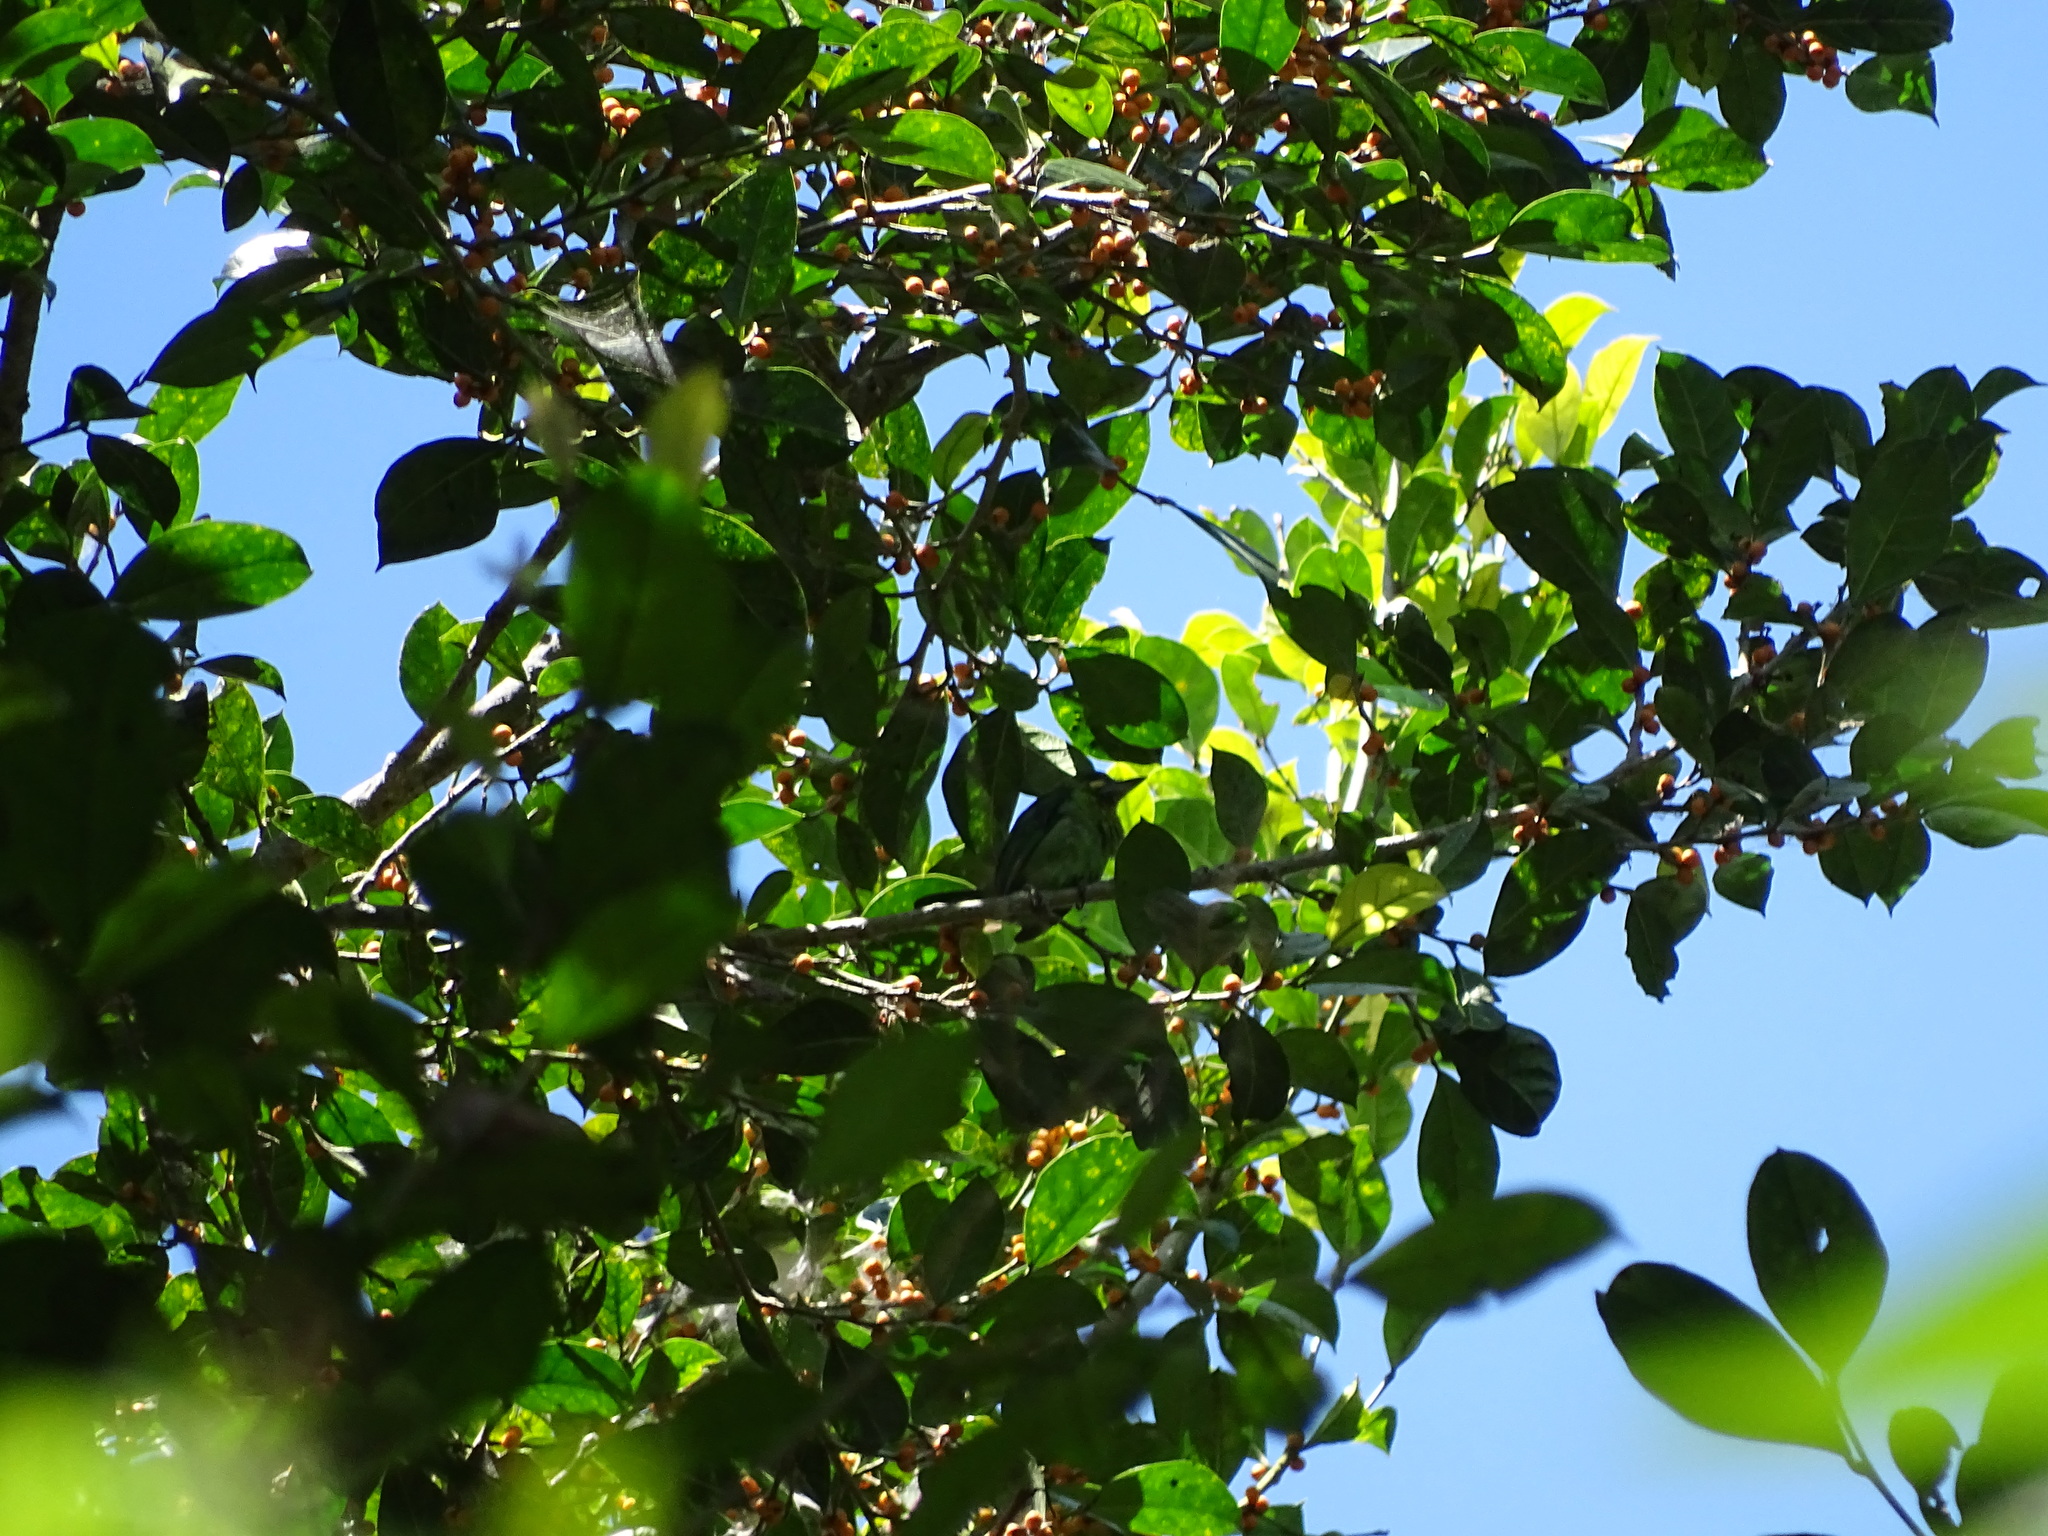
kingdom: Animalia
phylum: Chordata
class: Aves
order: Piciformes
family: Megalaimidae
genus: Psilopogon
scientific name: Psilopogon australis
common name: Yellow-eared barbet
